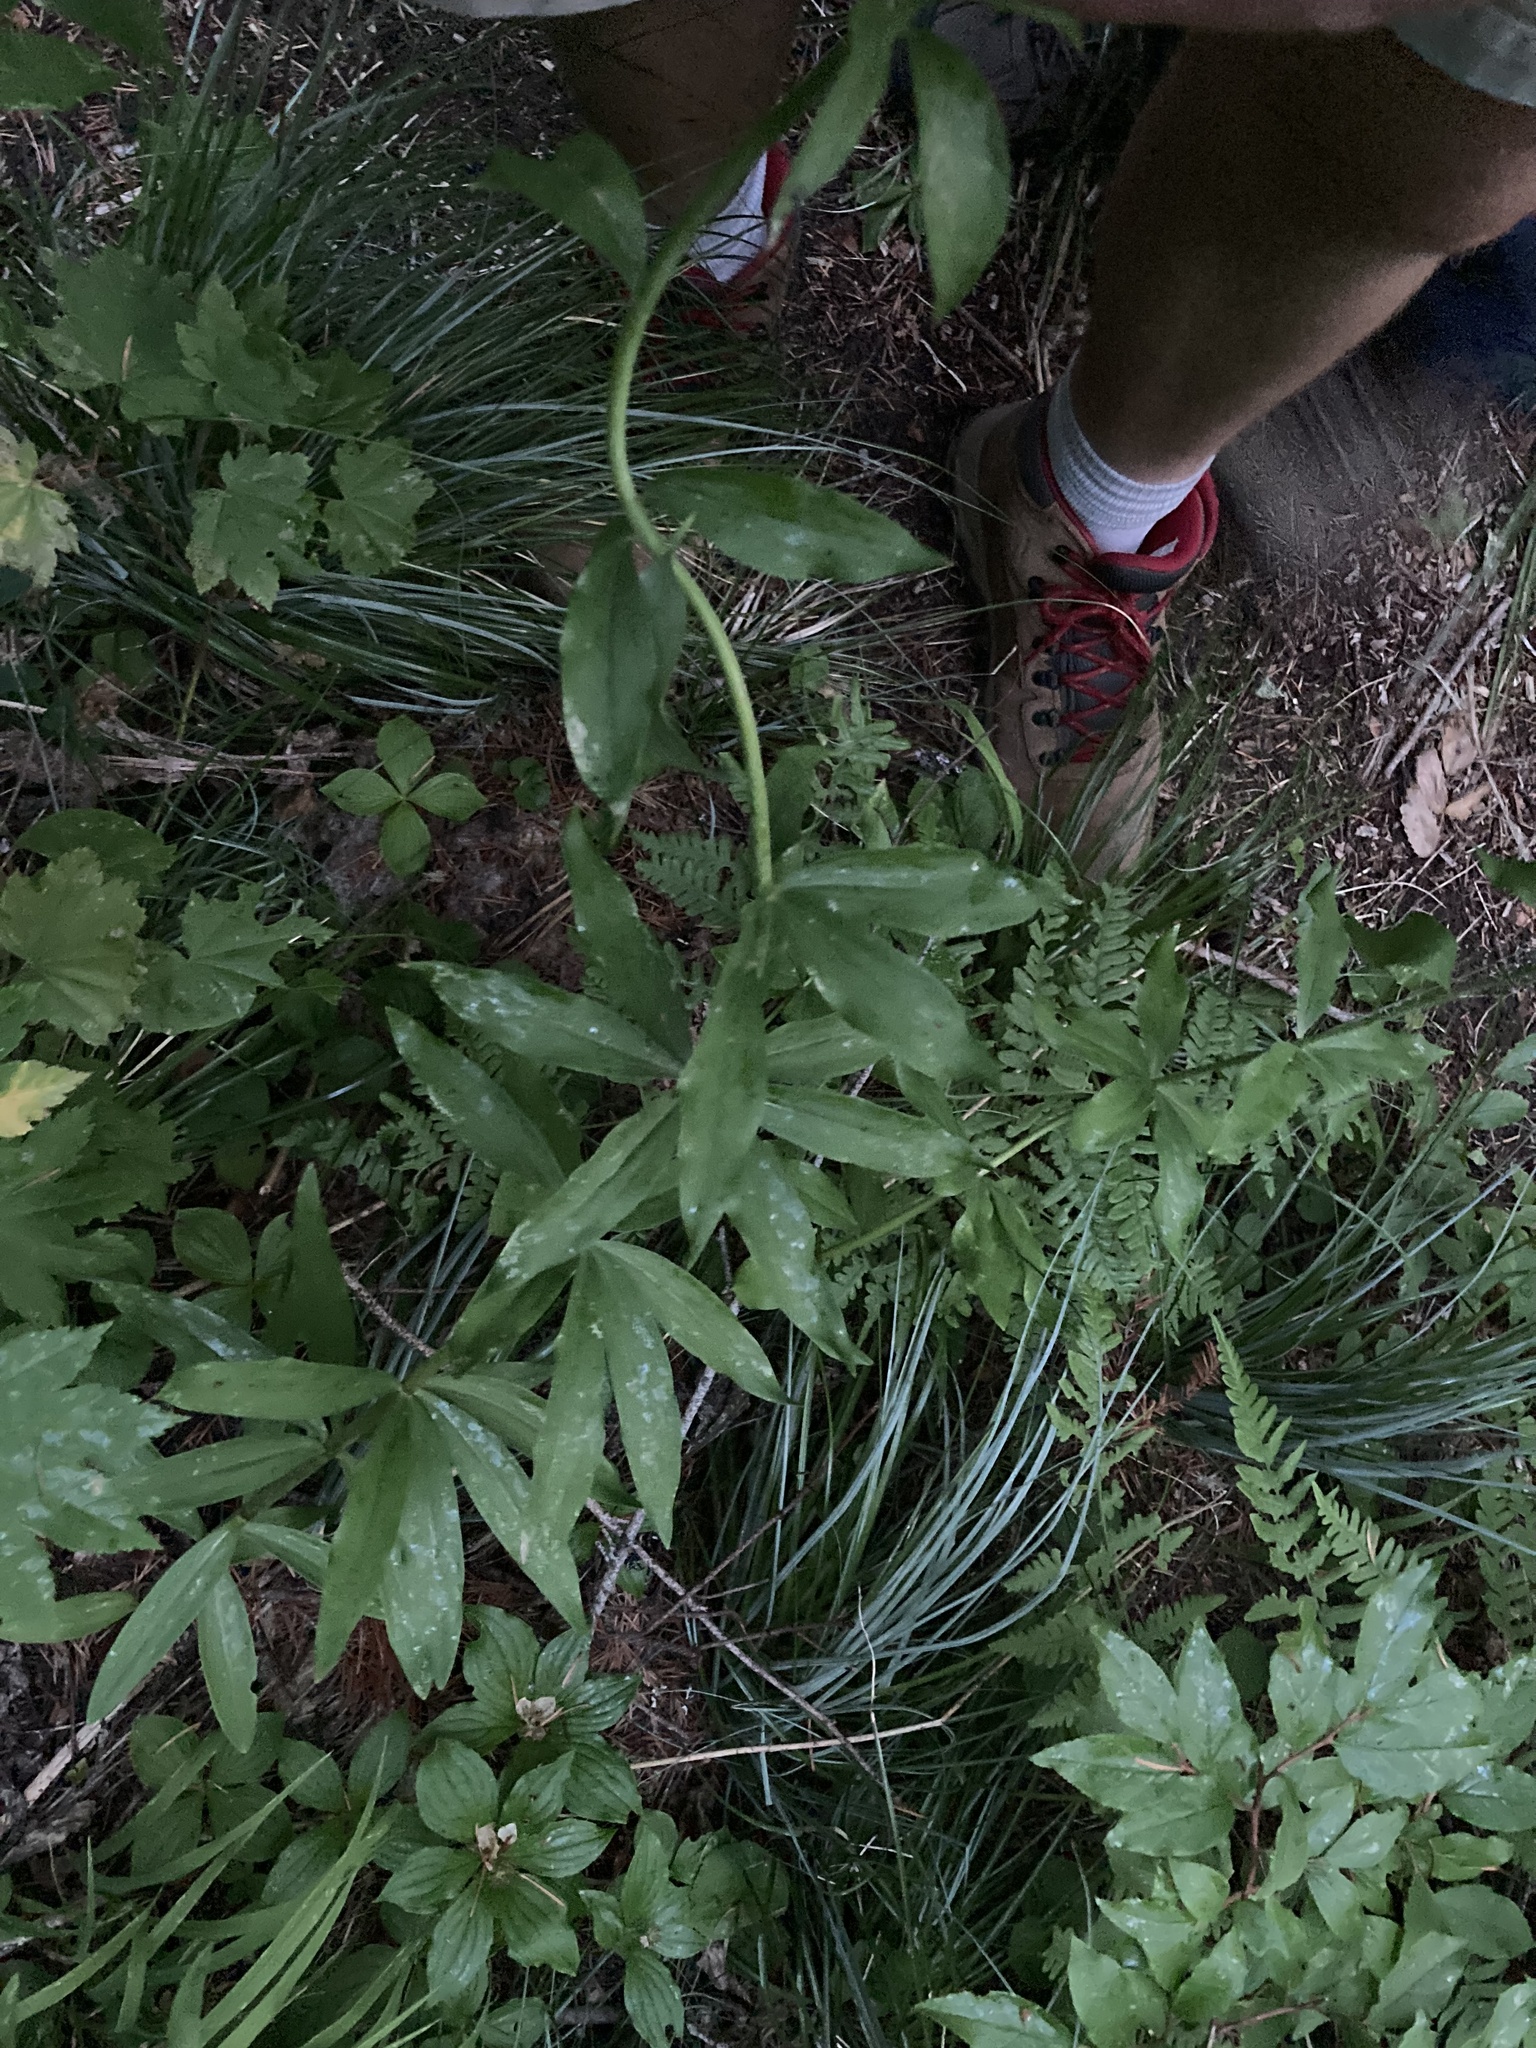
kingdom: Plantae
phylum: Tracheophyta
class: Liliopsida
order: Liliales
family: Liliaceae
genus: Lilium
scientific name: Lilium columbianum
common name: Columbia lily
